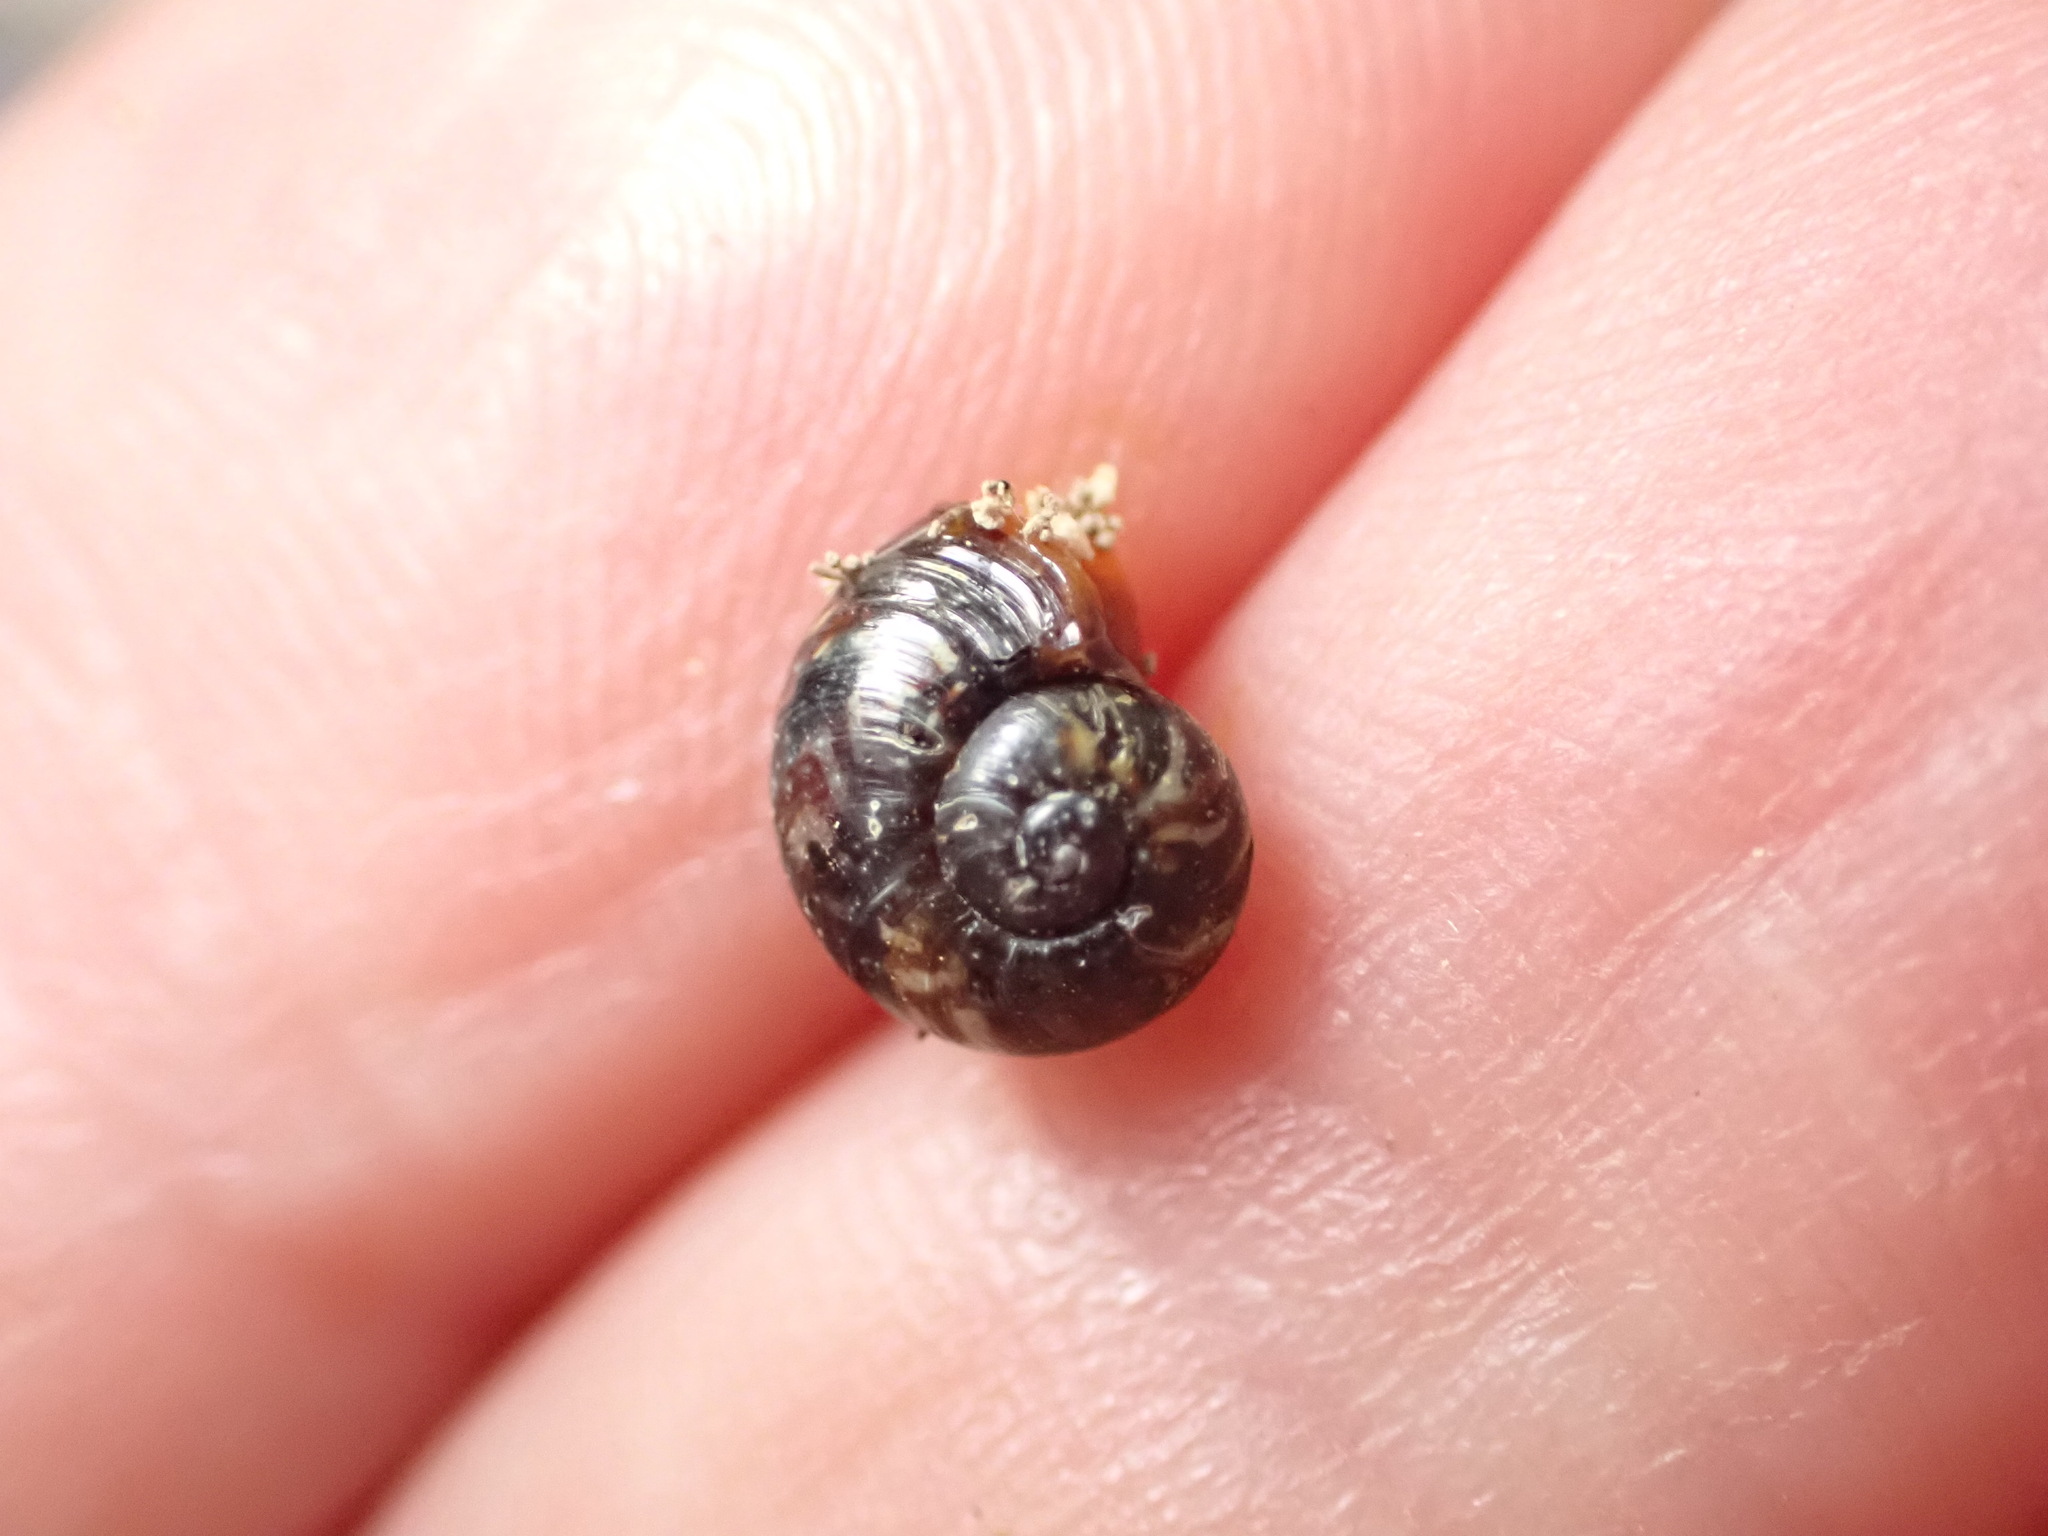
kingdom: Animalia
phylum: Mollusca
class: Gastropoda
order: Stylommatophora
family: Charopidae
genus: Flammulina
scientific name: Flammulina zebra
